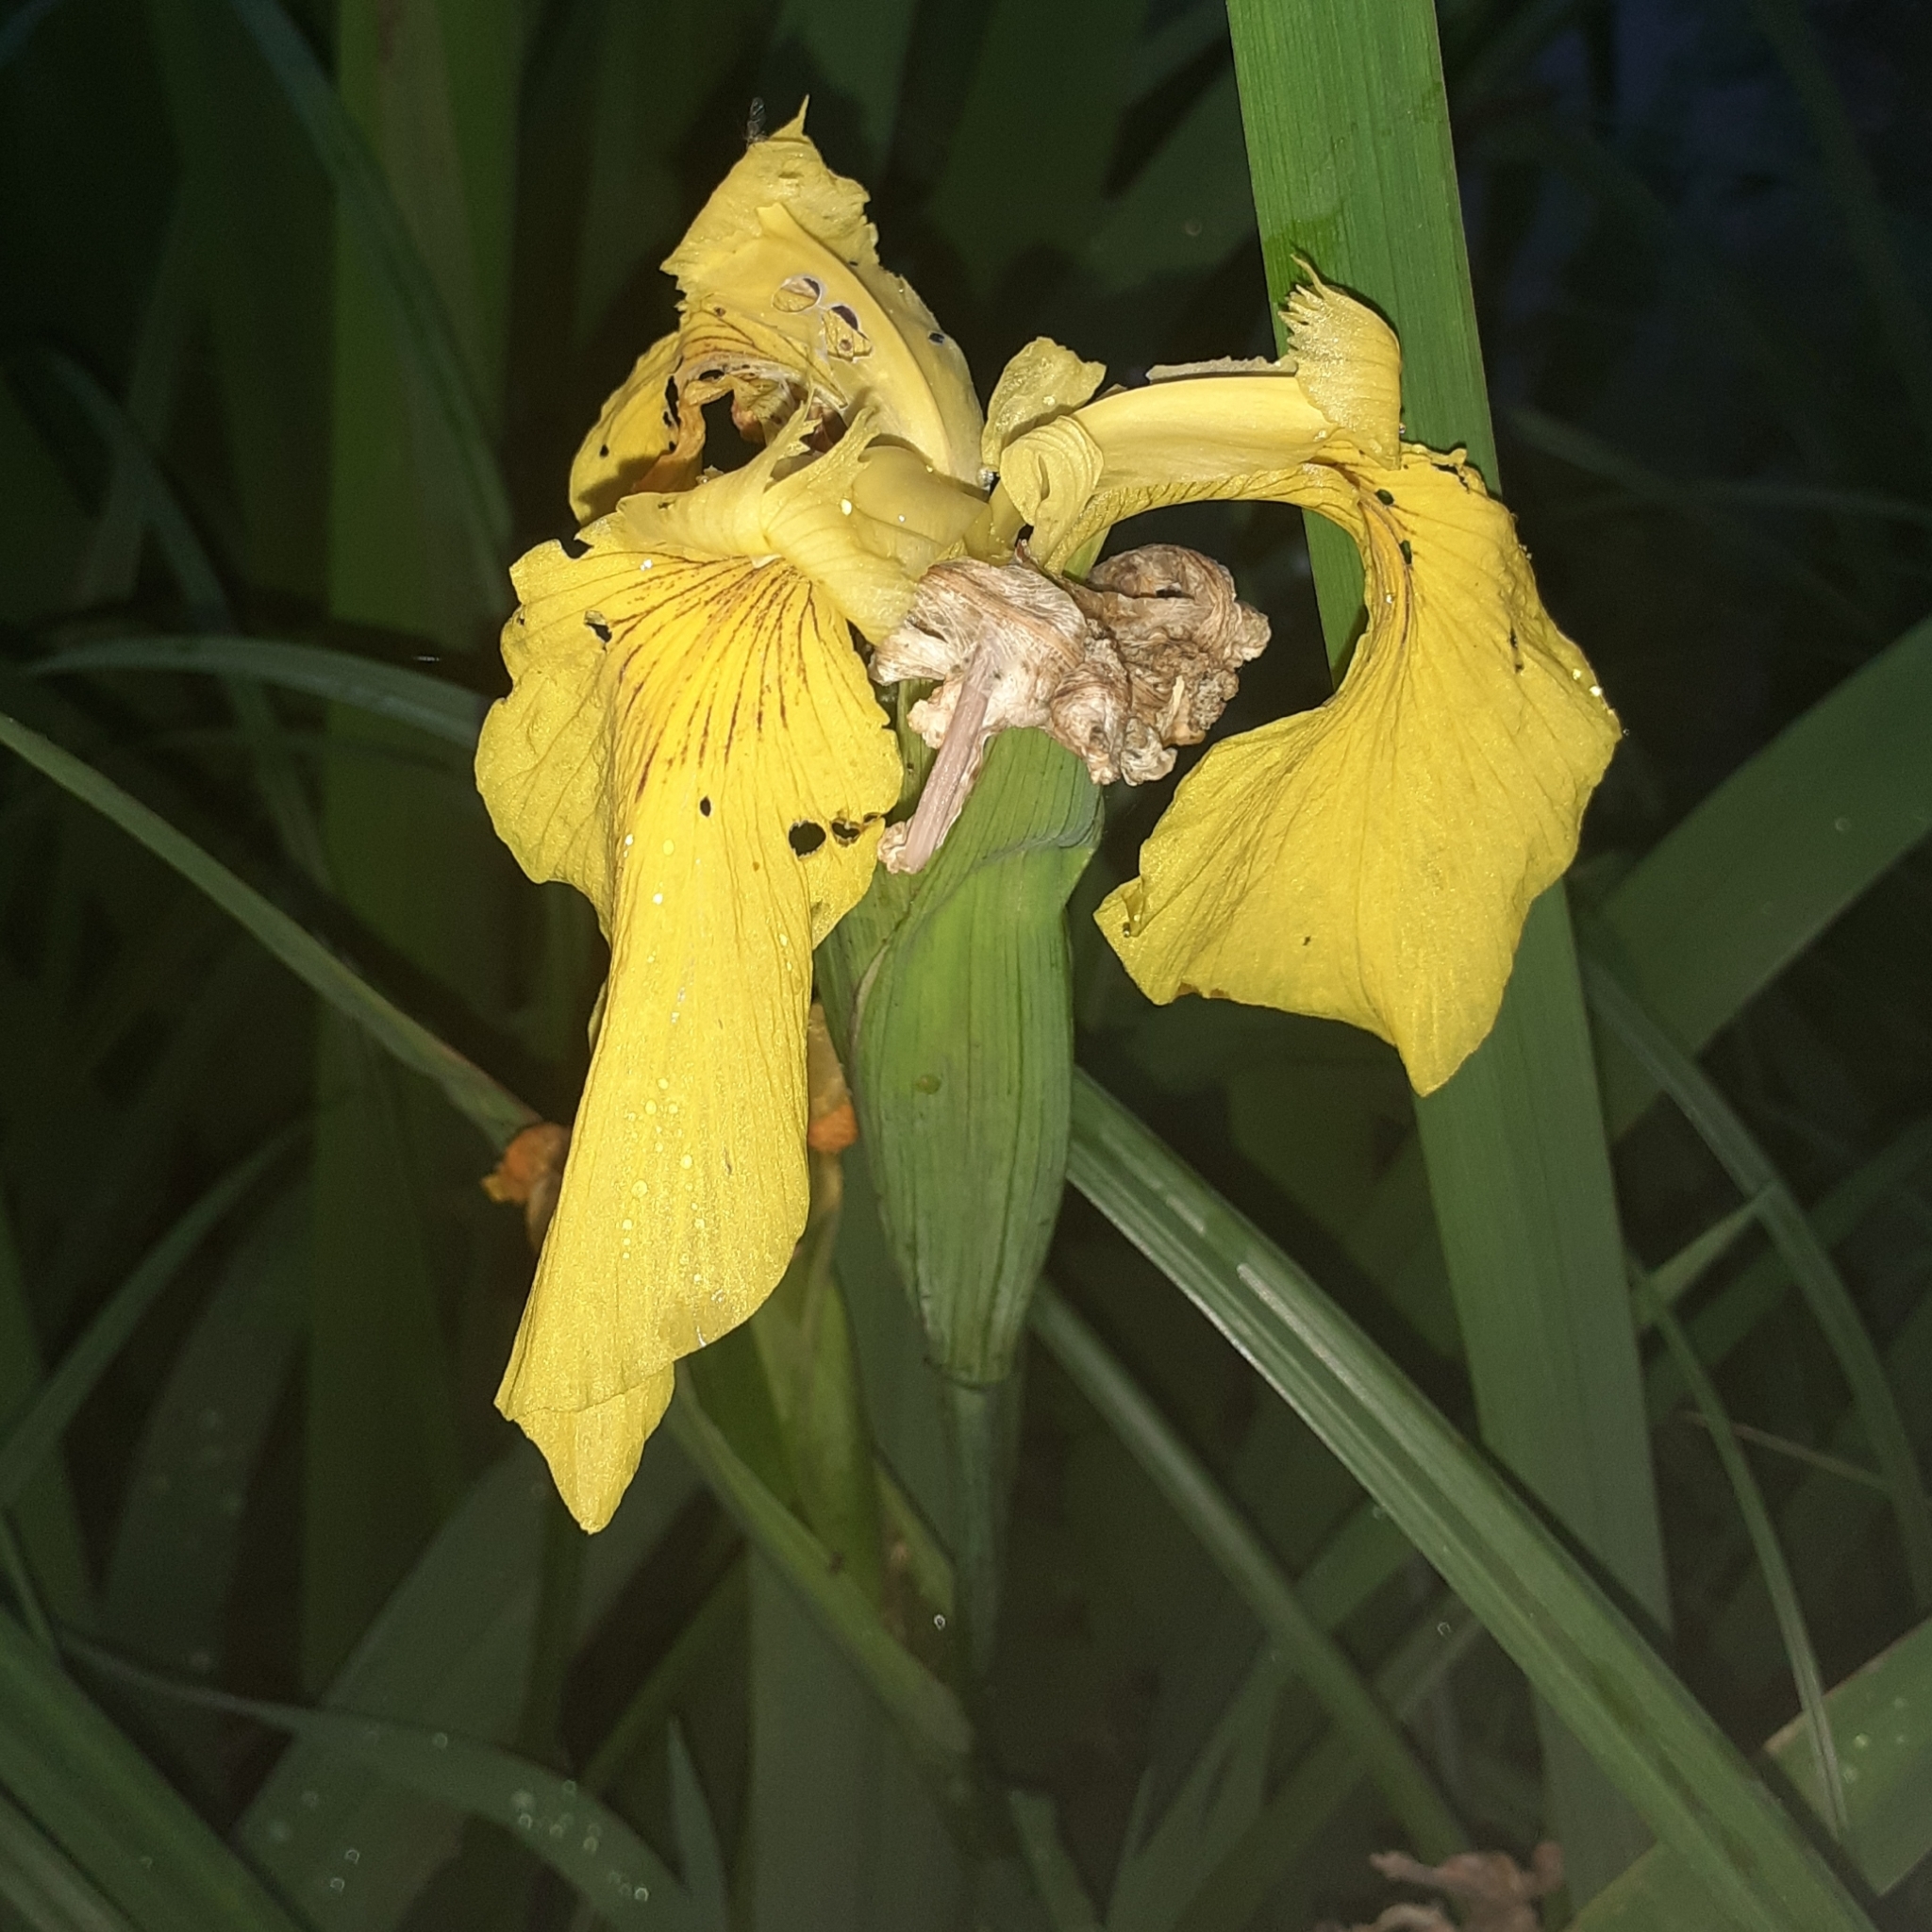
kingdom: Plantae
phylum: Tracheophyta
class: Liliopsida
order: Asparagales
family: Iridaceae
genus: Iris
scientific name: Iris pseudacorus
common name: Yellow flag
